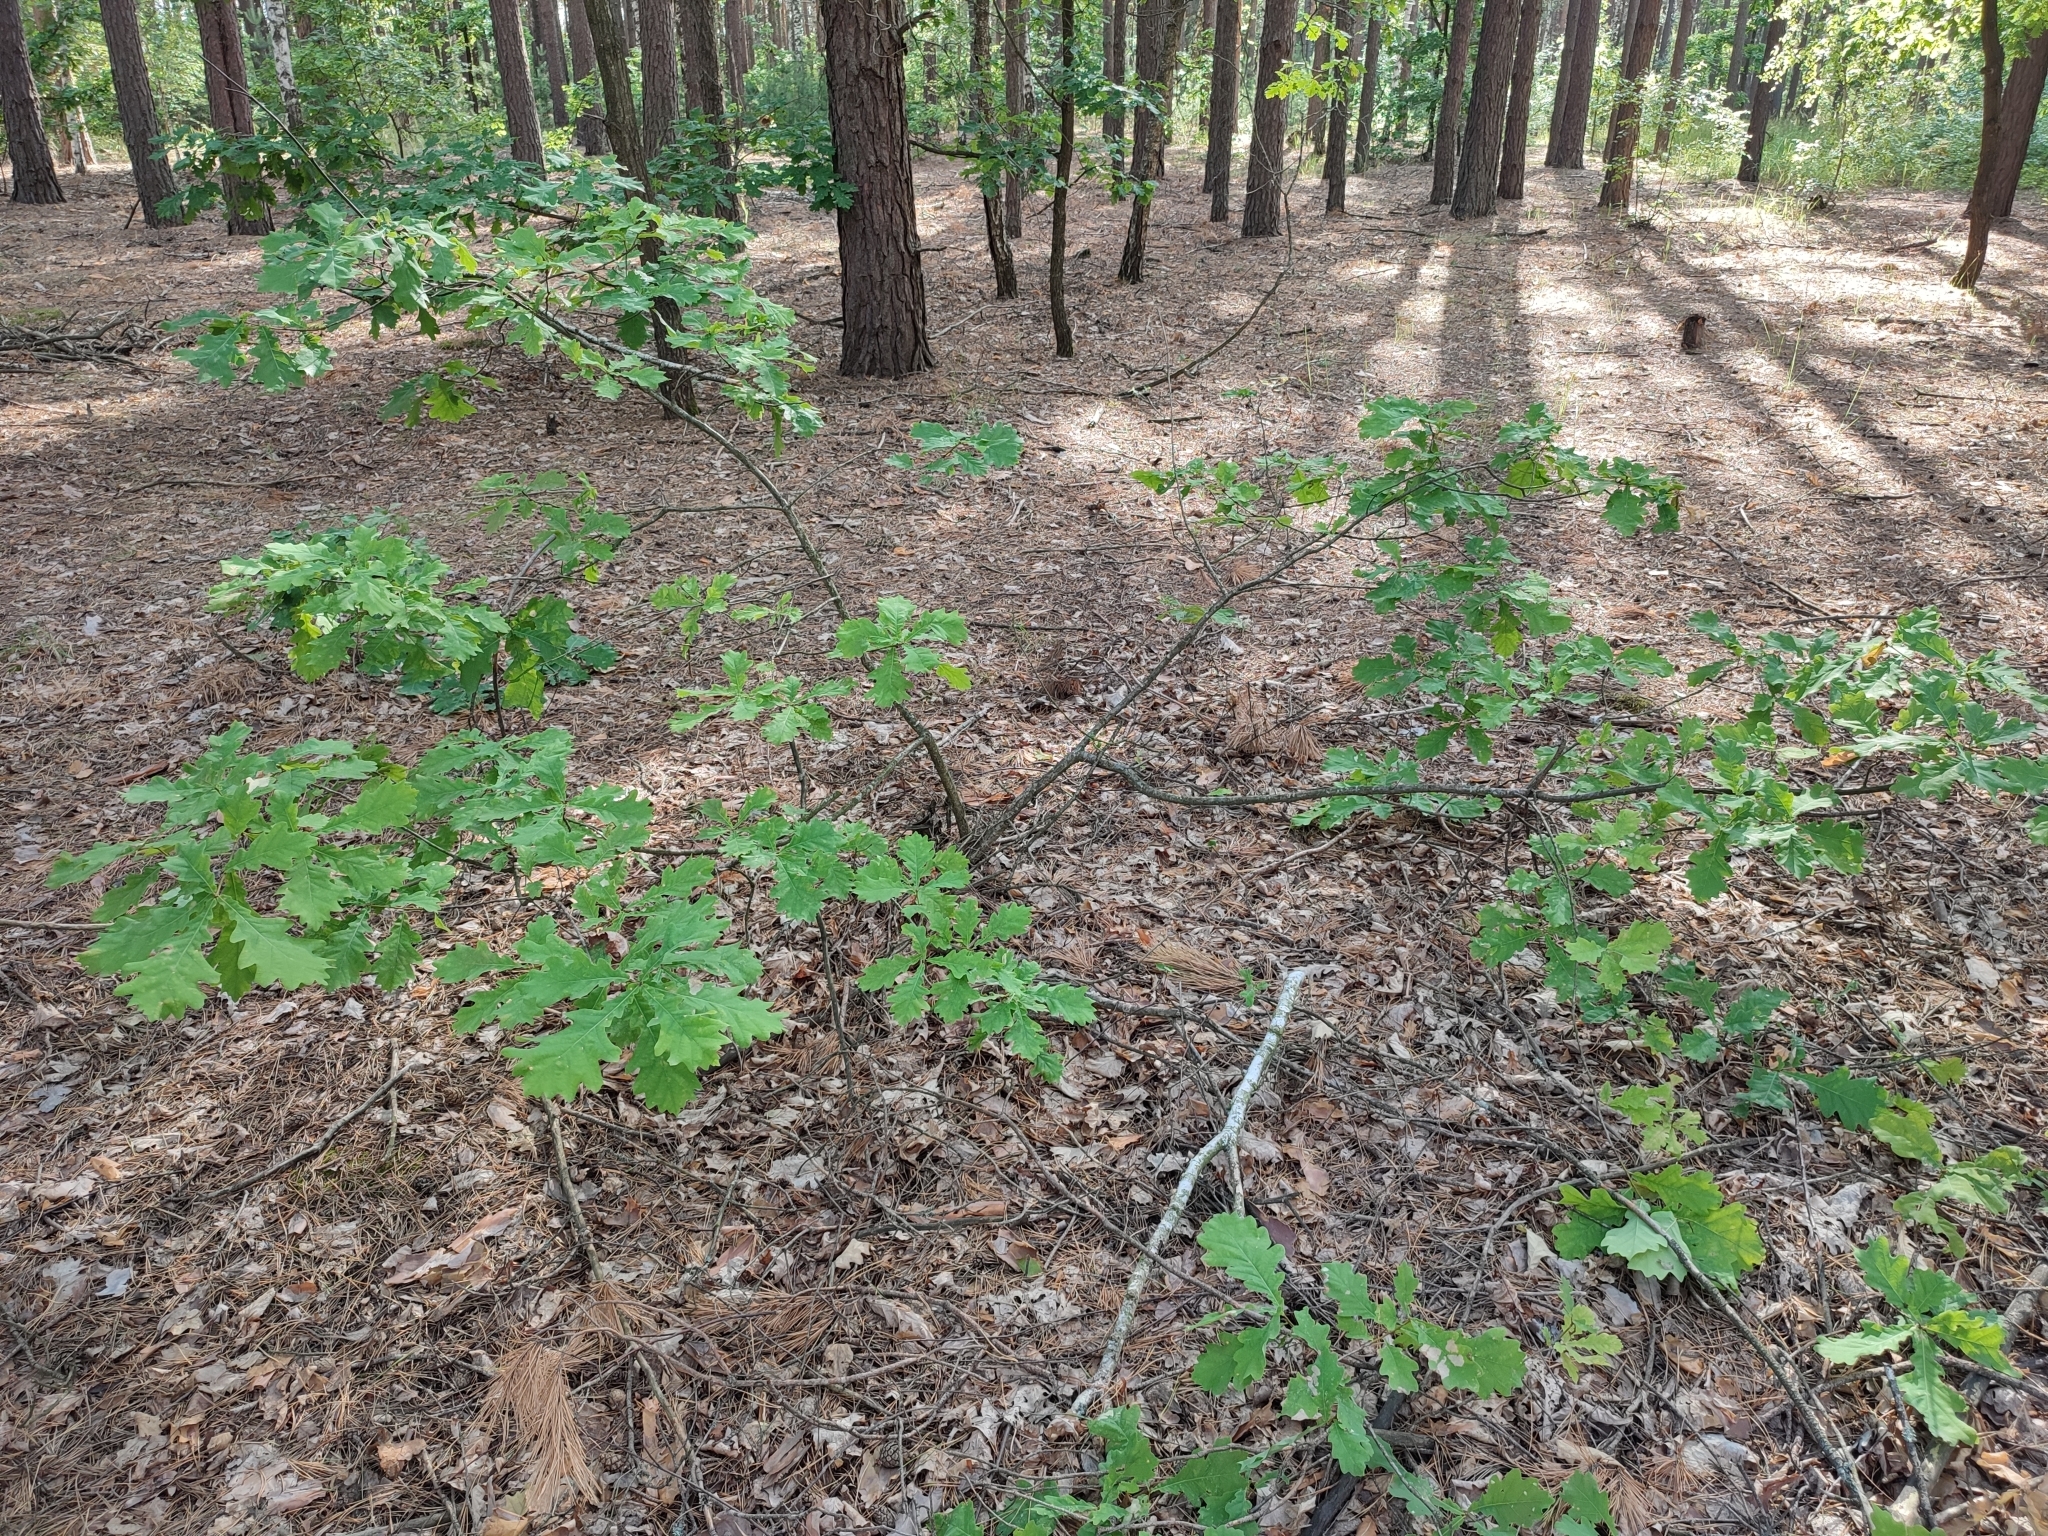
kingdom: Plantae
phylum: Tracheophyta
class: Magnoliopsida
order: Fagales
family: Fagaceae
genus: Quercus
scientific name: Quercus robur
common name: Pedunculate oak
